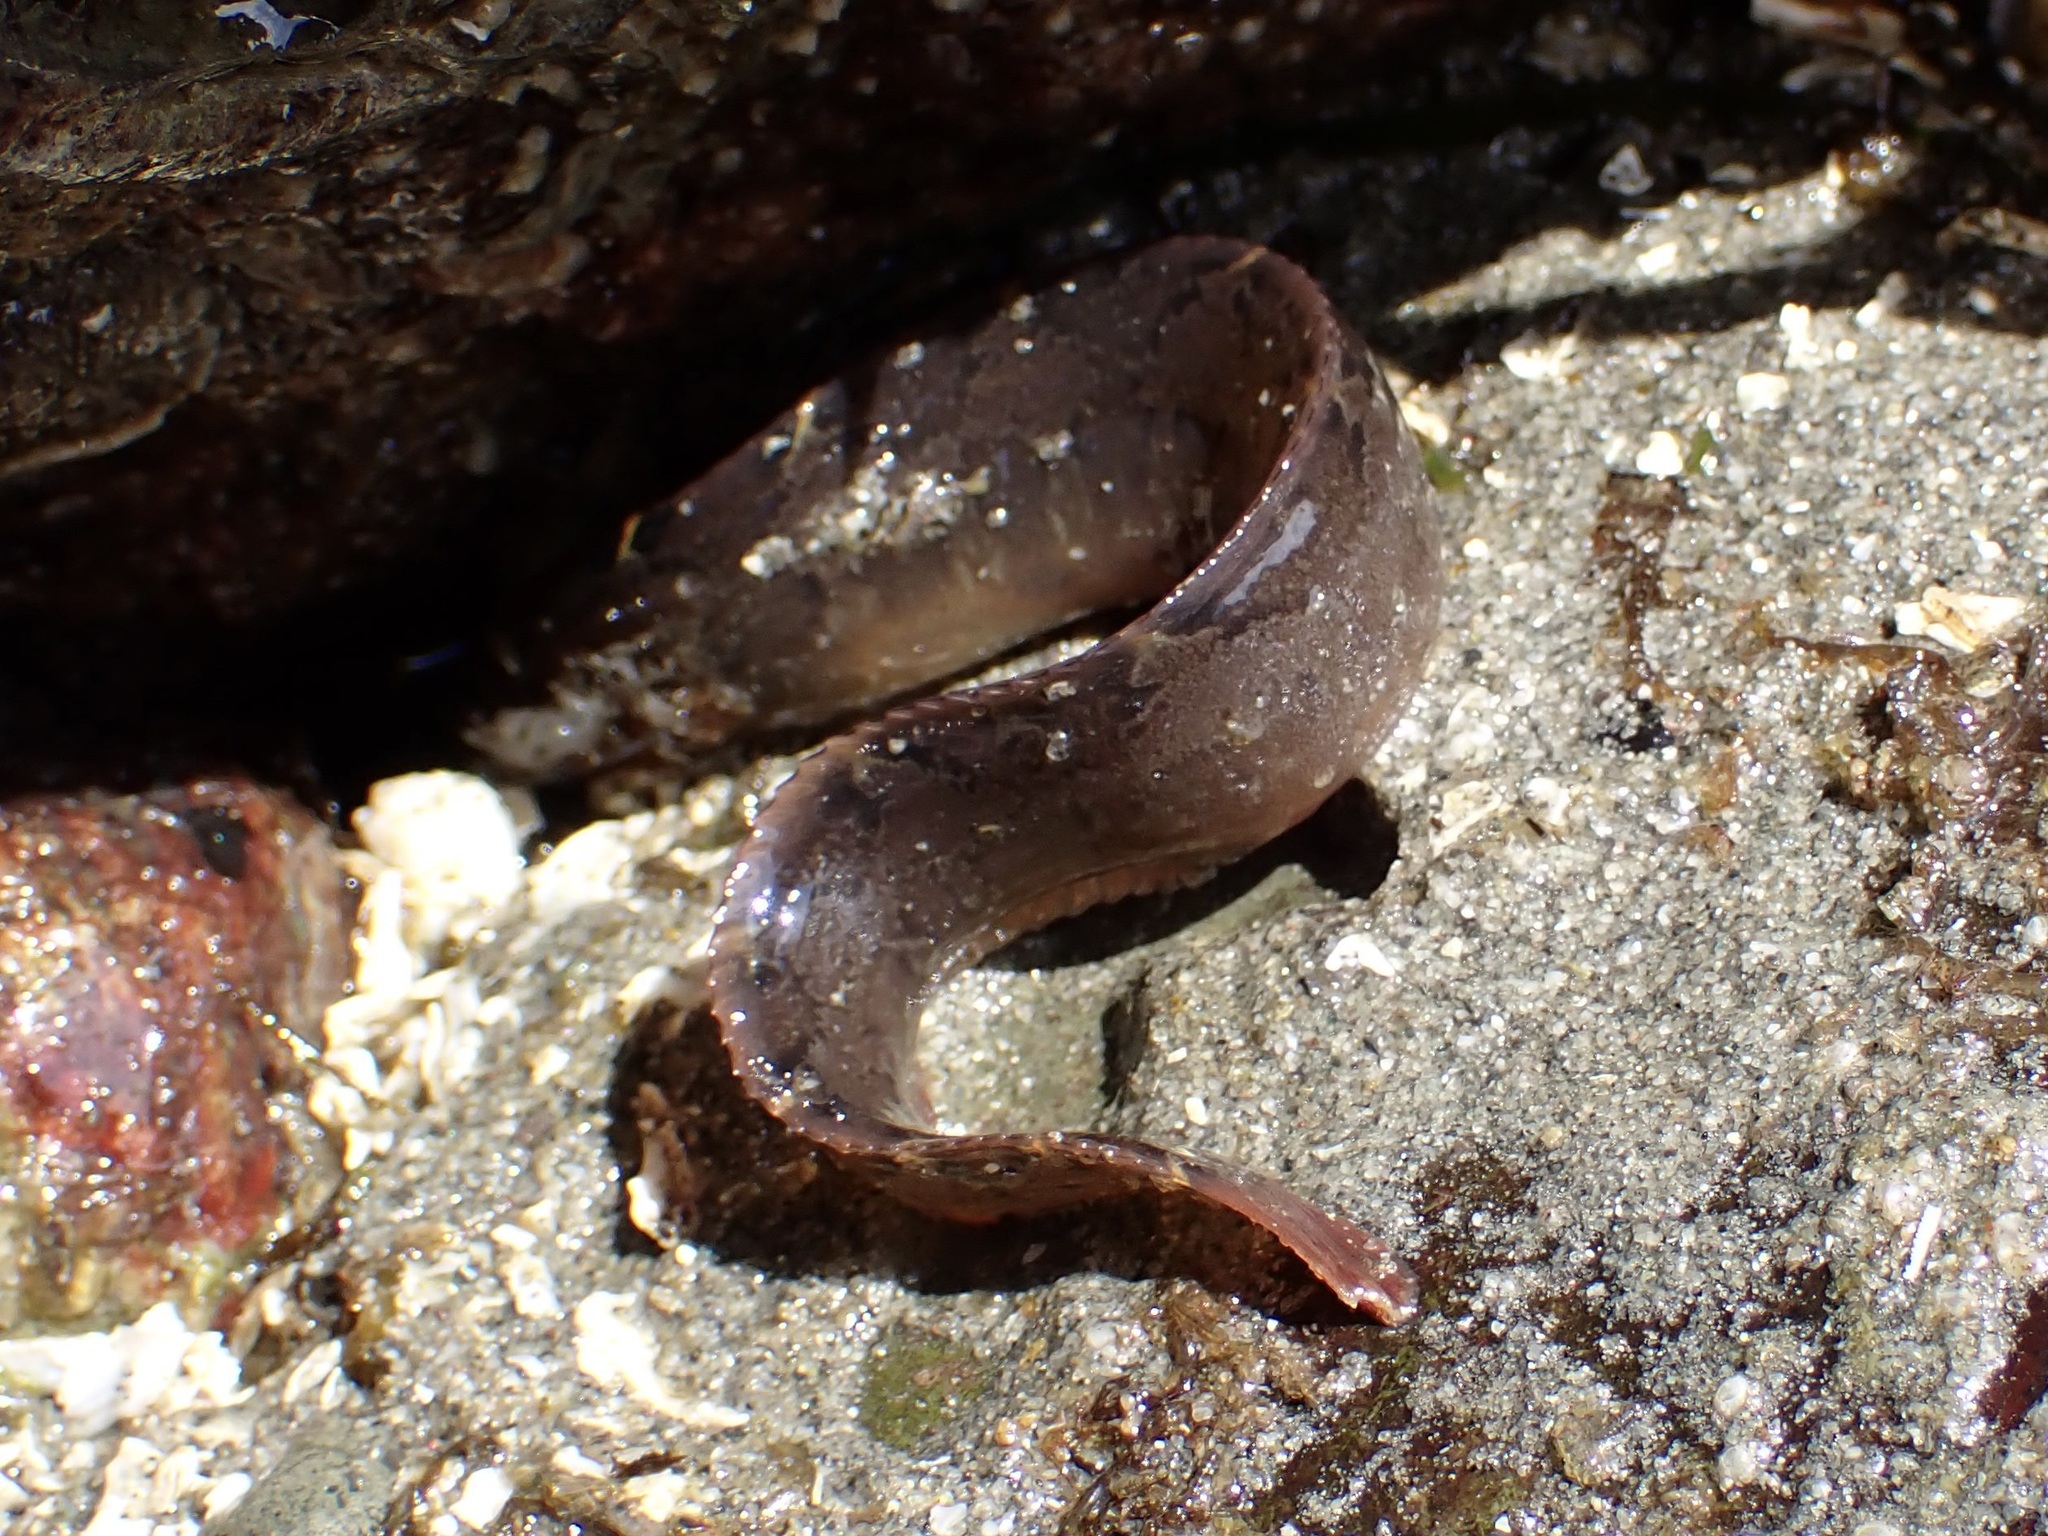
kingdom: Animalia
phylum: Chordata
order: Perciformes
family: Pholidae
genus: Pholis
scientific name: Pholis ornata
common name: Saddleback gunnel
